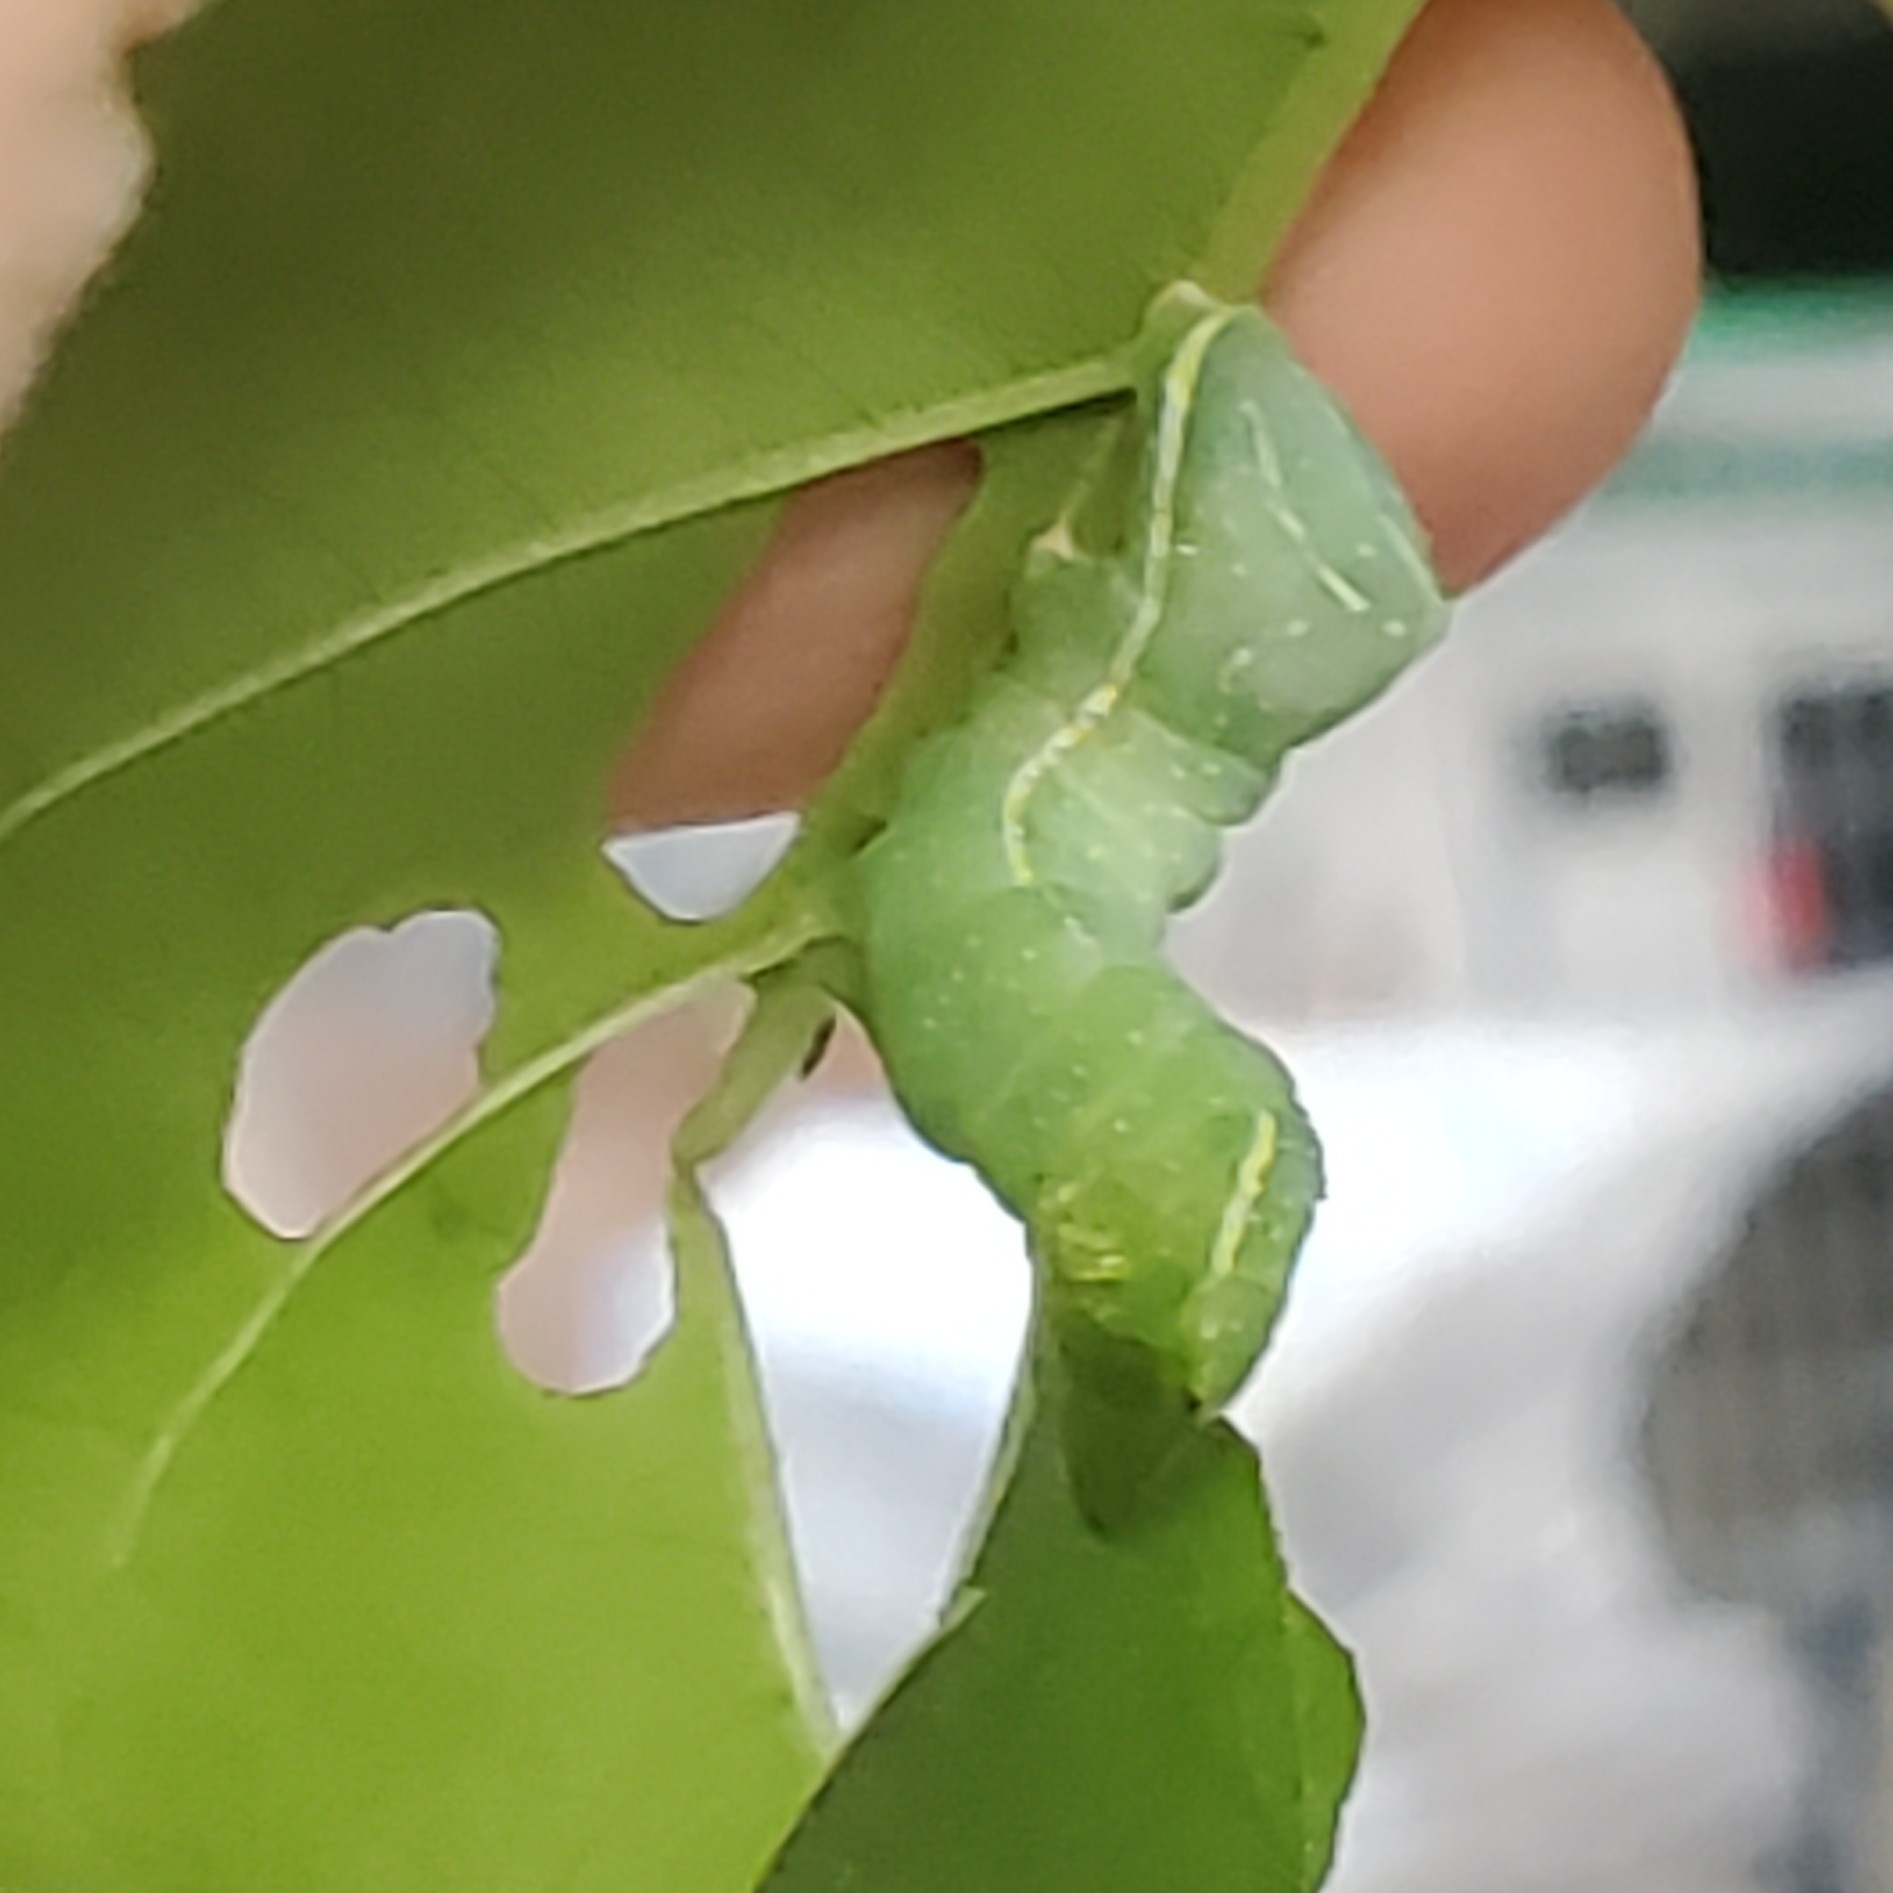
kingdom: Animalia
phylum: Arthropoda
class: Insecta
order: Lepidoptera
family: Noctuidae
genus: Amphipyra
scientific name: Amphipyra pyramidoides
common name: American copper underwing
